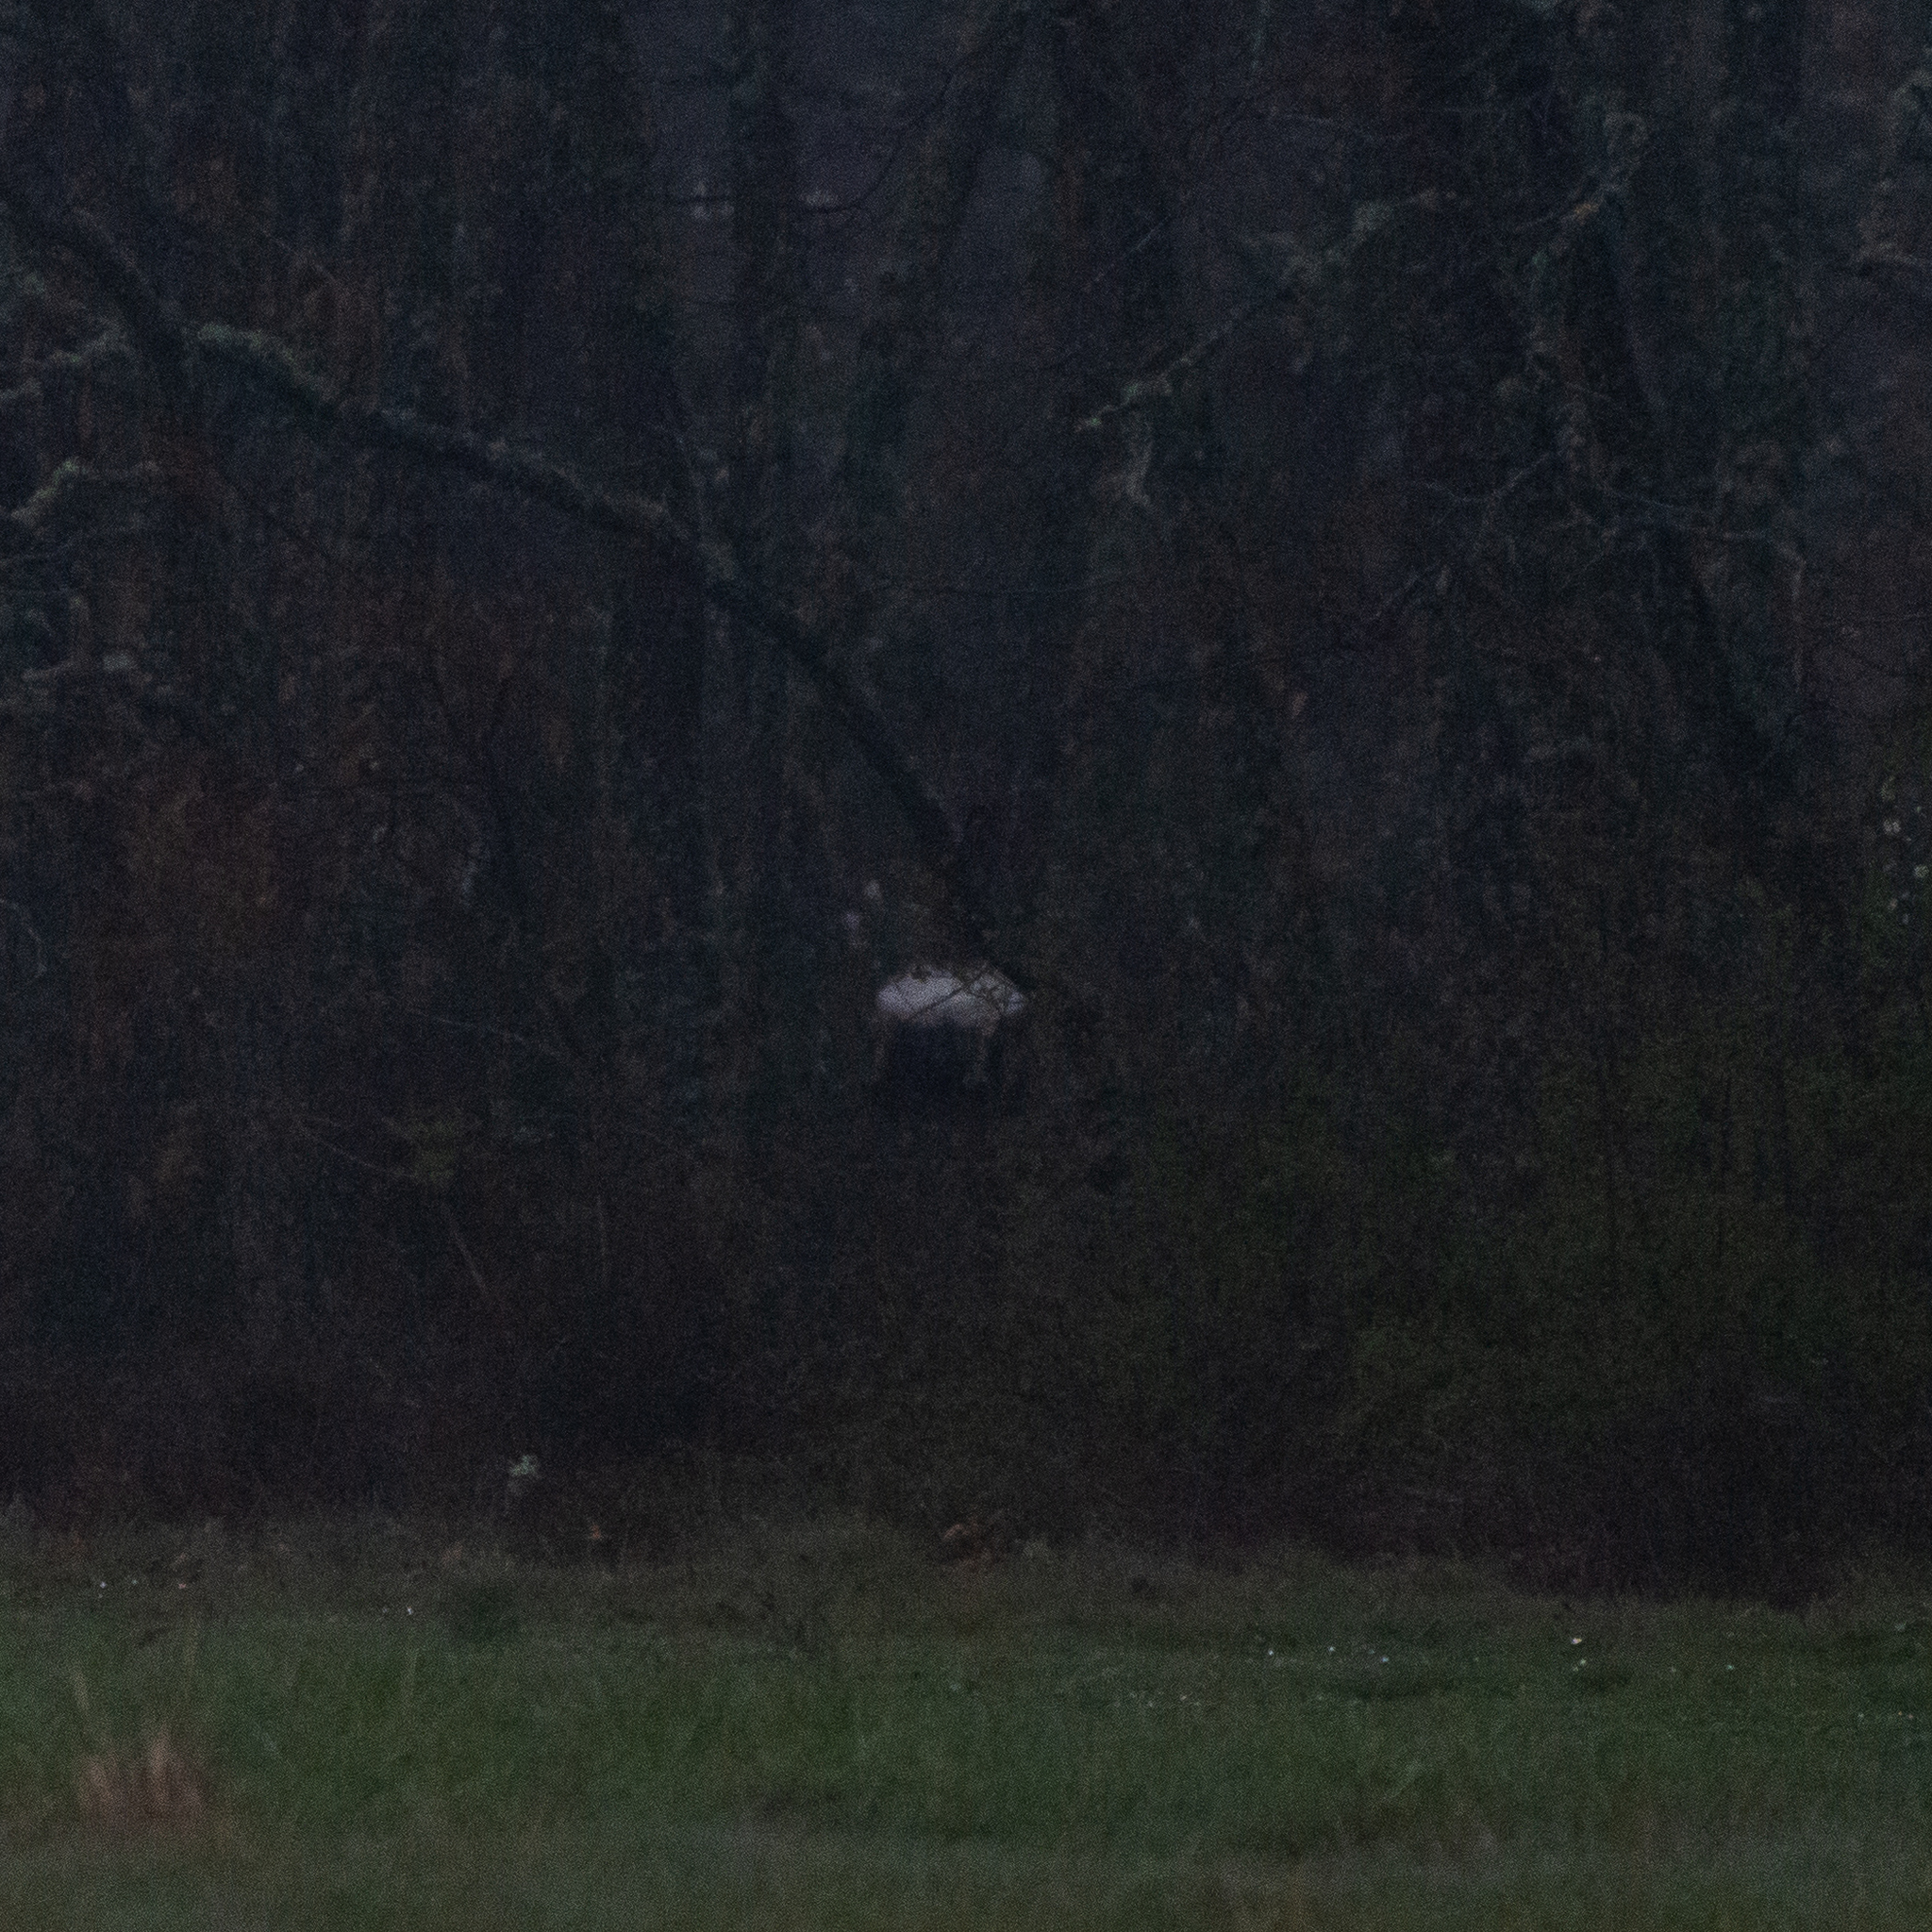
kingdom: Animalia
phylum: Chordata
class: Mammalia
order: Artiodactyla
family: Cervidae
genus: Capreolus
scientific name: Capreolus capreolus
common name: Western roe deer
